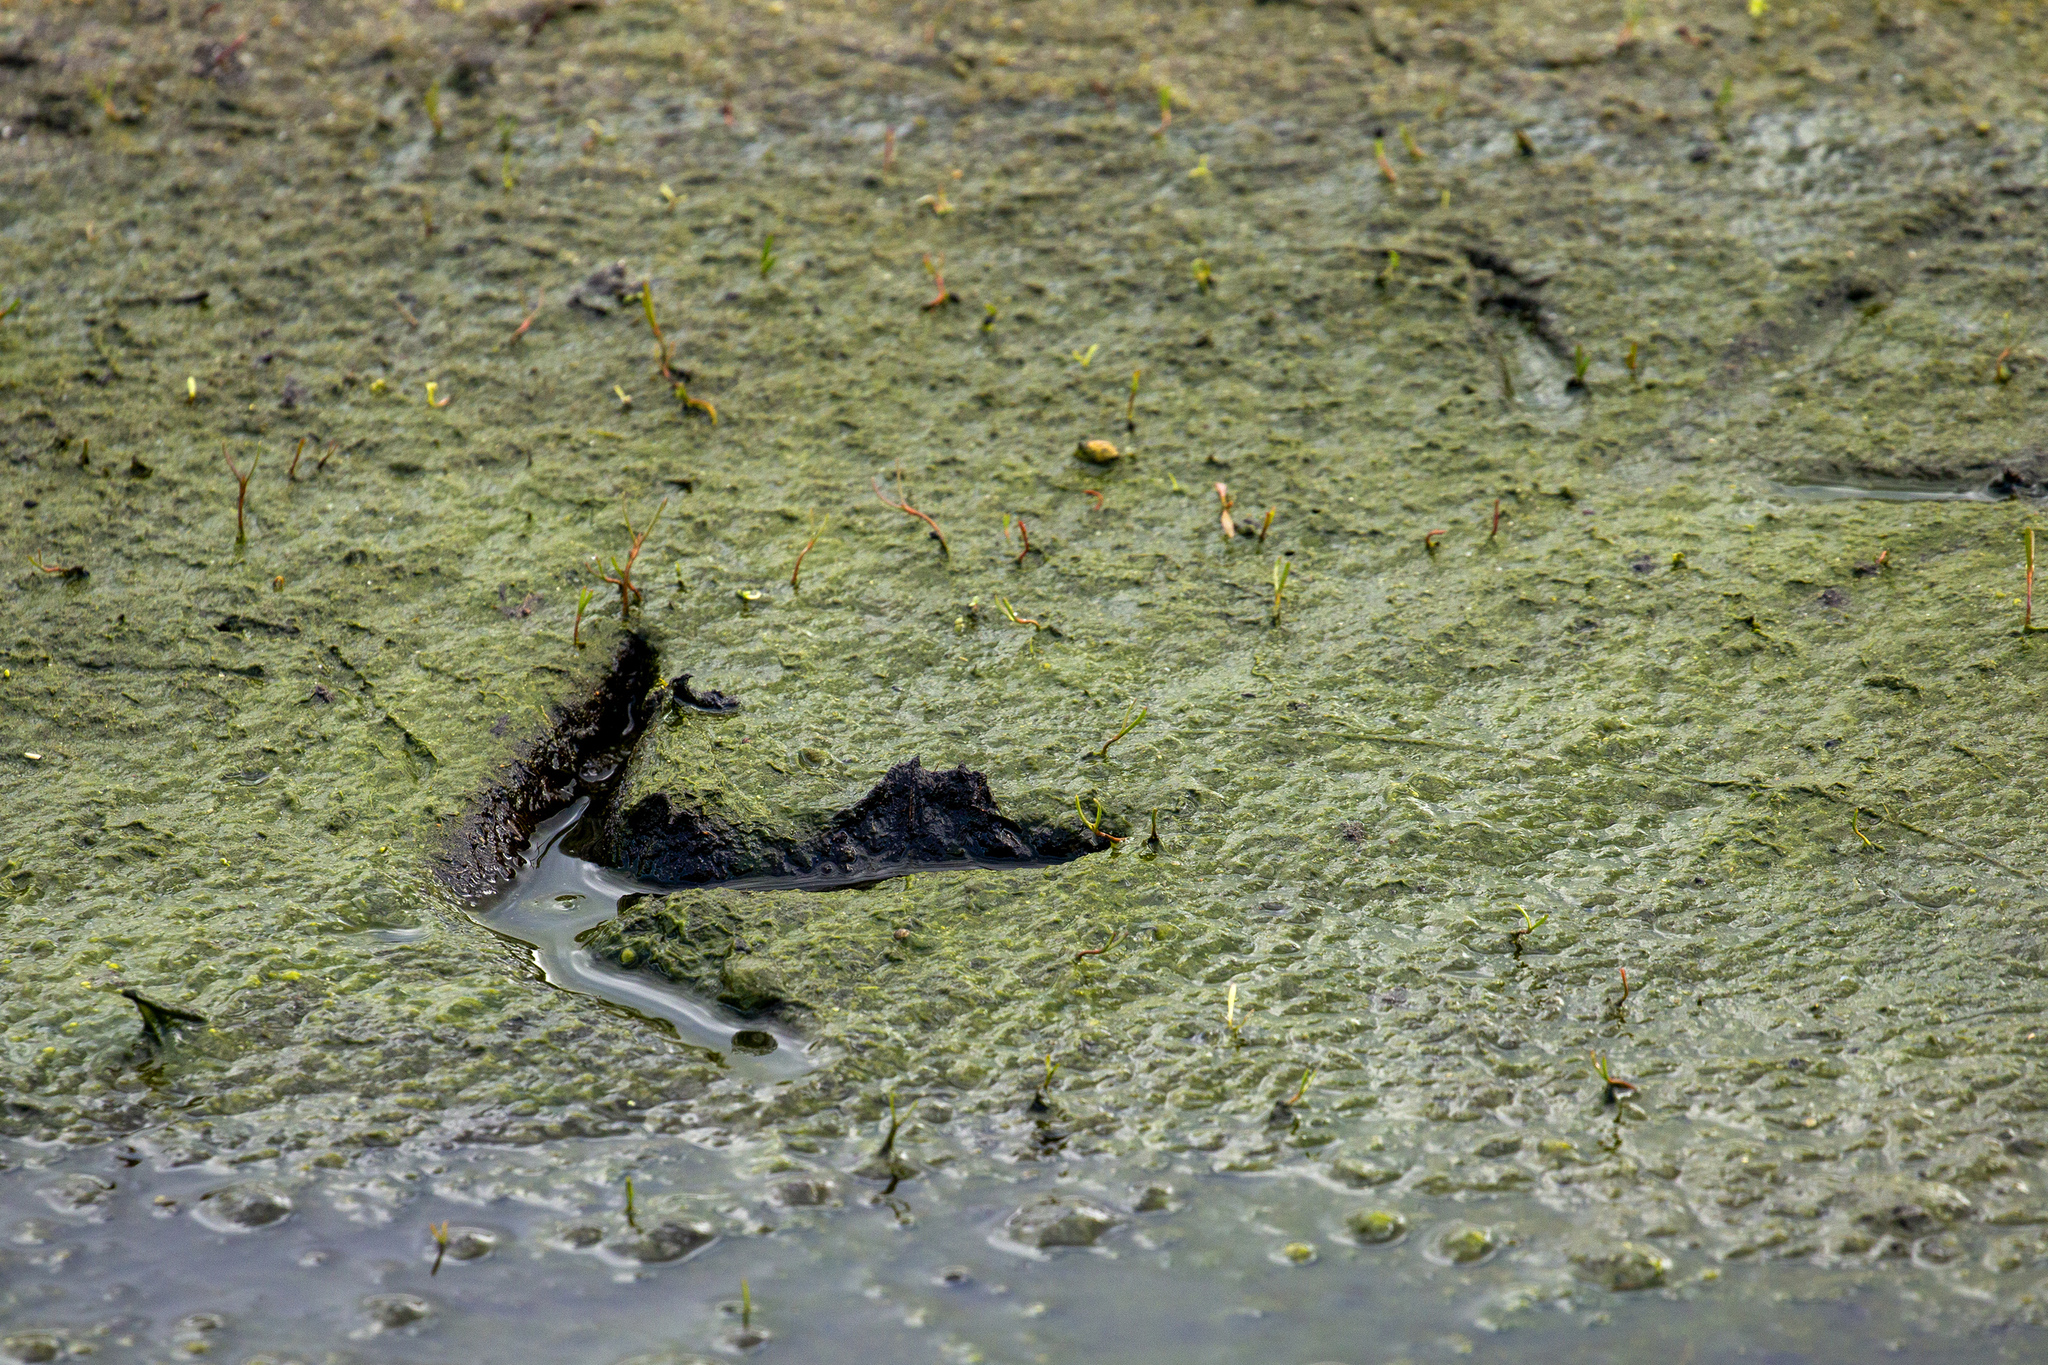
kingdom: Animalia
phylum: Chordata
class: Aves
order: Gruiformes
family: Gruidae
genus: Grus
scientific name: Grus grus
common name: Common crane
